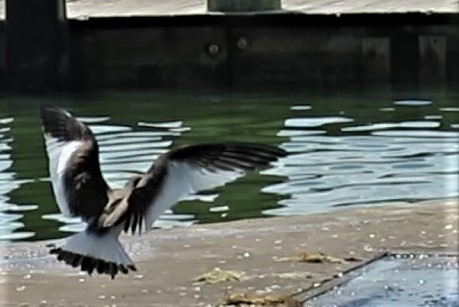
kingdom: Animalia
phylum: Chordata
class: Aves
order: Charadriiformes
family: Laridae
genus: Xema
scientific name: Xema sabini
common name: Sabine's gull
